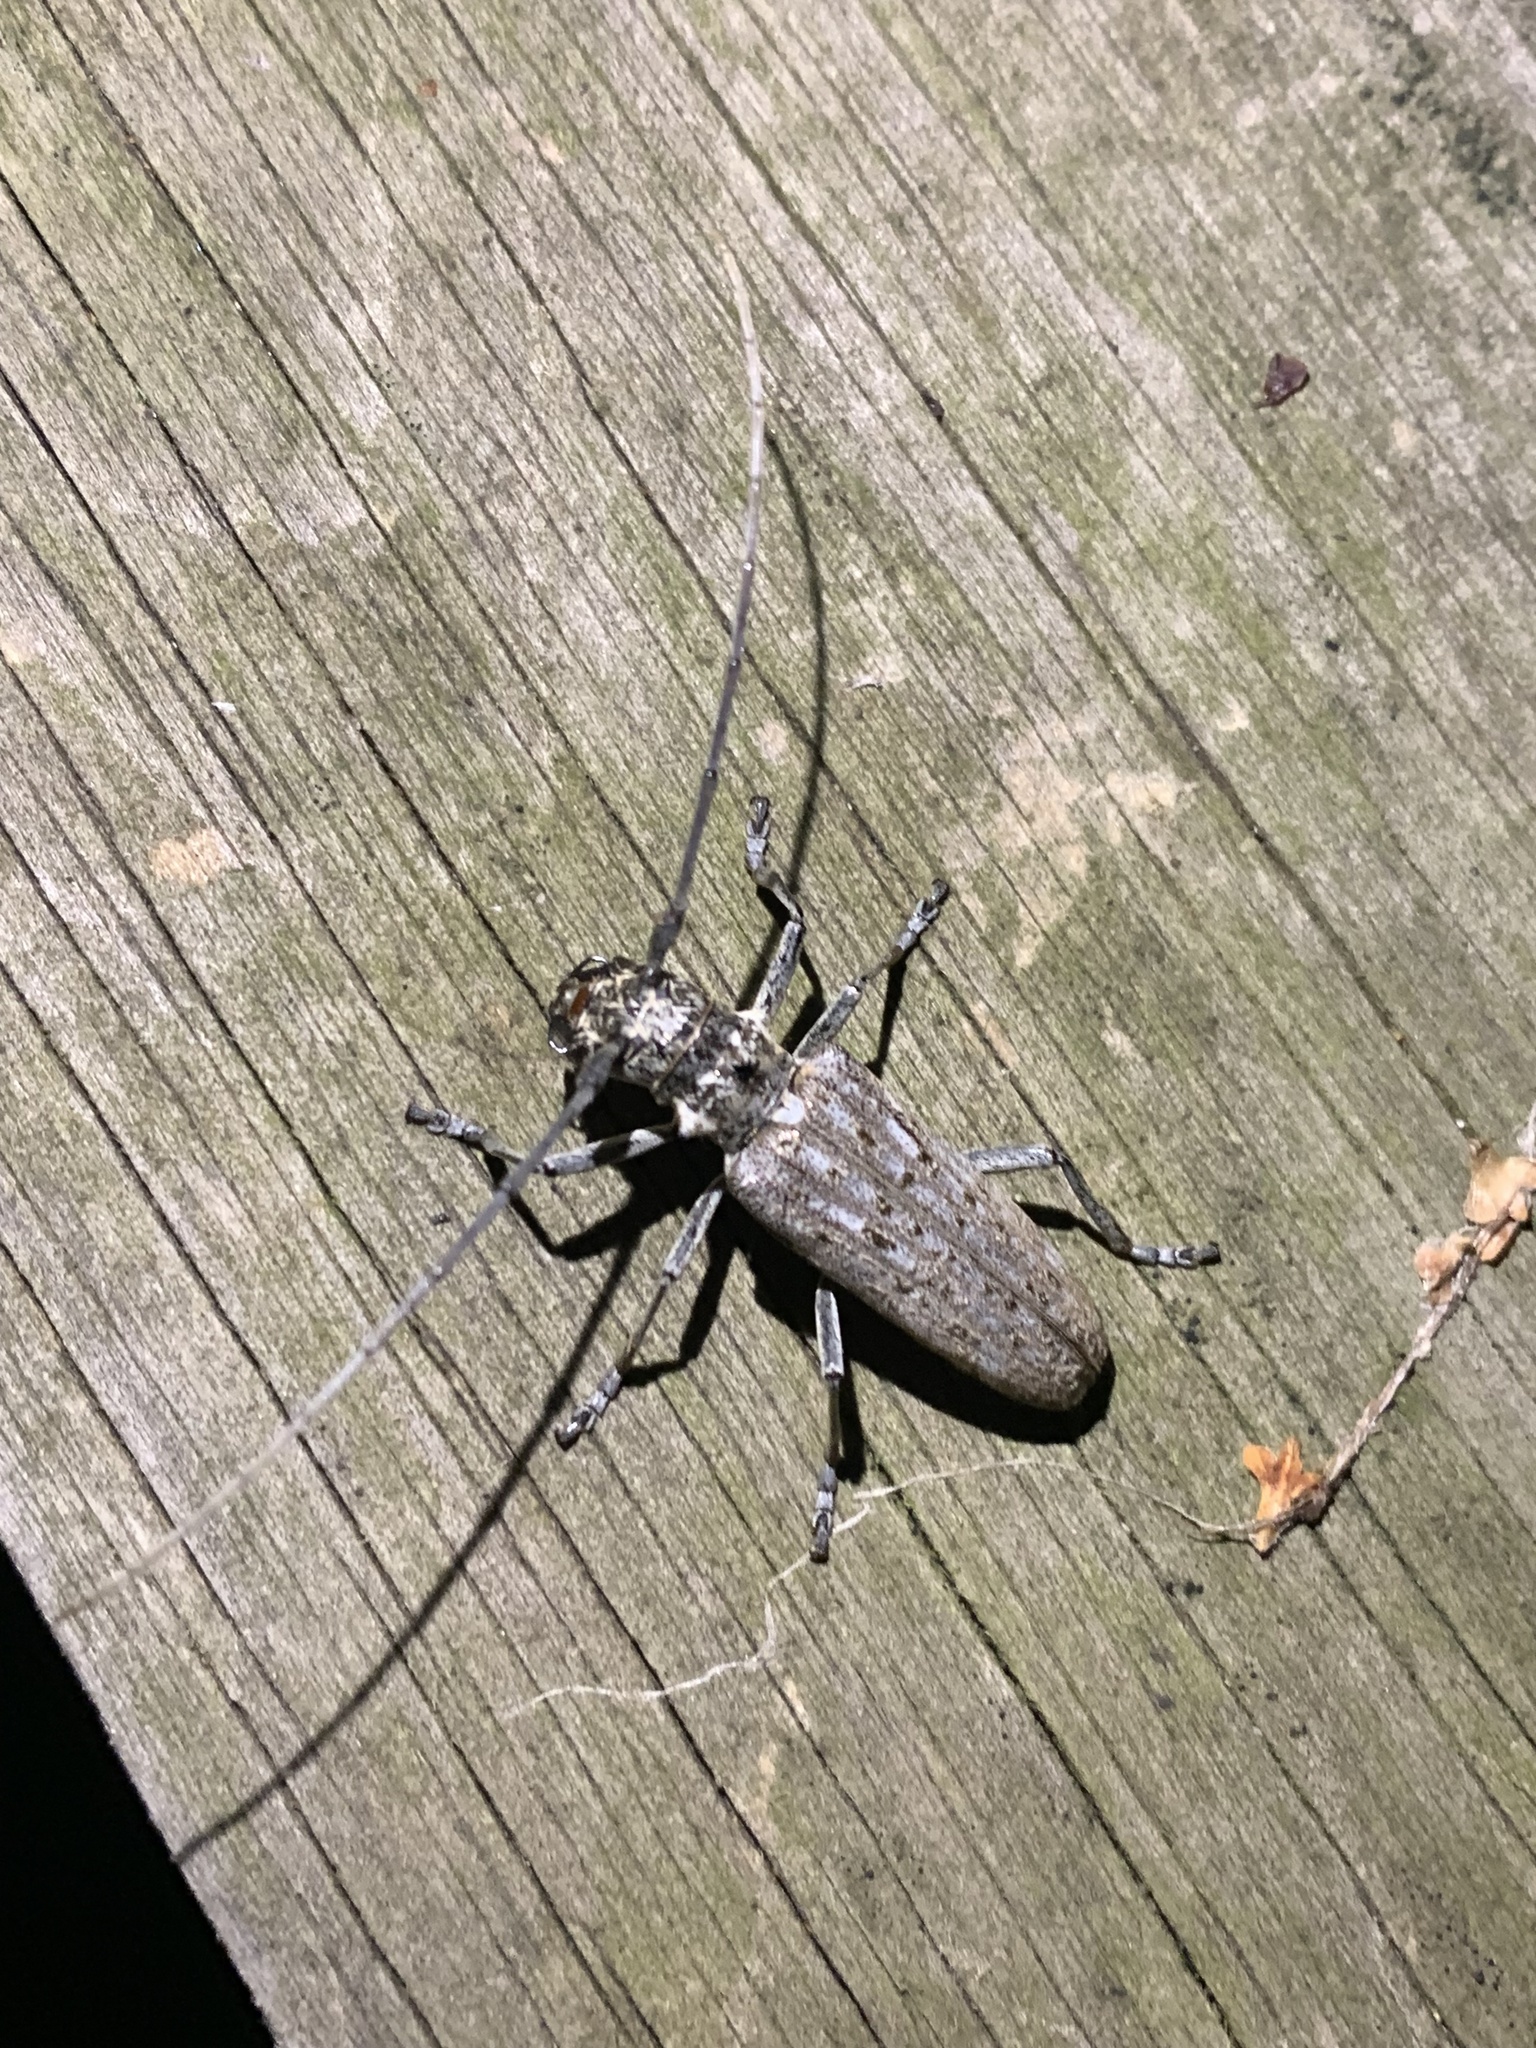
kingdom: Animalia
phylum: Arthropoda
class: Insecta
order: Coleoptera
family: Cerambycidae
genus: Monochamus
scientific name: Monochamus notatus
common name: Northeastern pine sawyer beetle
